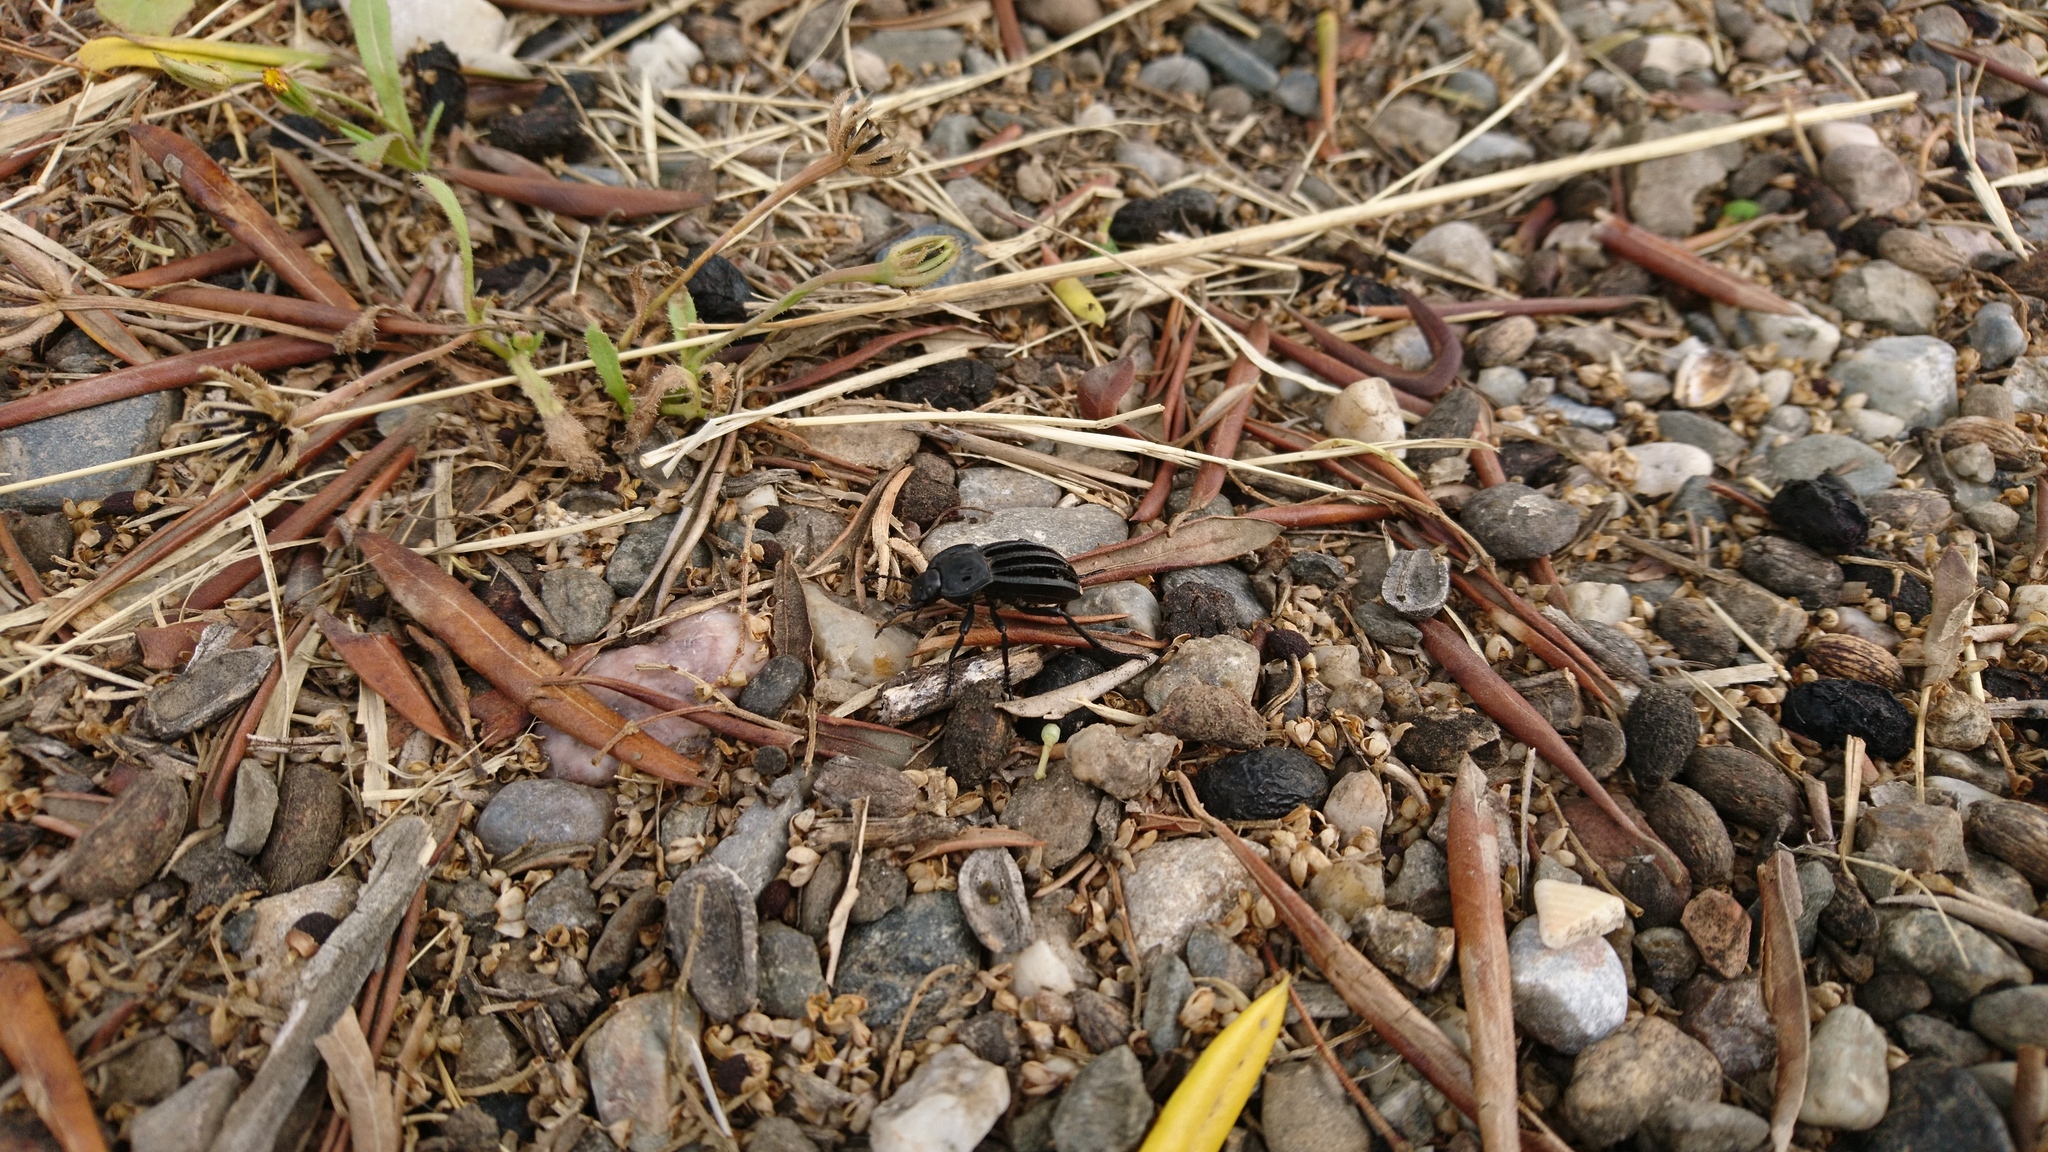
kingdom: Animalia
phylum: Arthropoda
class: Insecta
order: Coleoptera
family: Tenebrionidae
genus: Alphasida
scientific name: Alphasida holosericea
